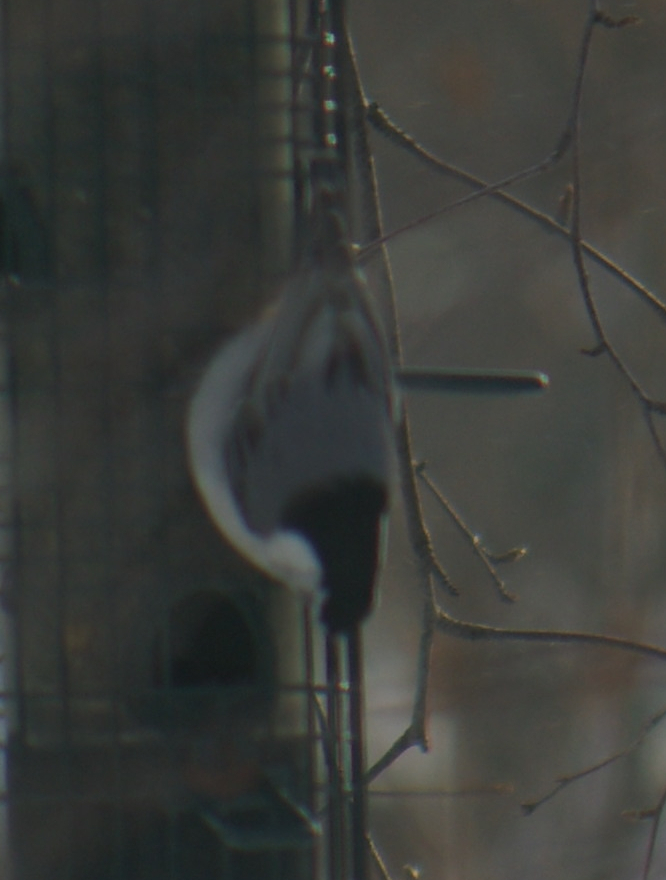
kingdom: Animalia
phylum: Chordata
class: Aves
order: Passeriformes
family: Sittidae
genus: Sitta
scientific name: Sitta carolinensis
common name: White-breasted nuthatch
